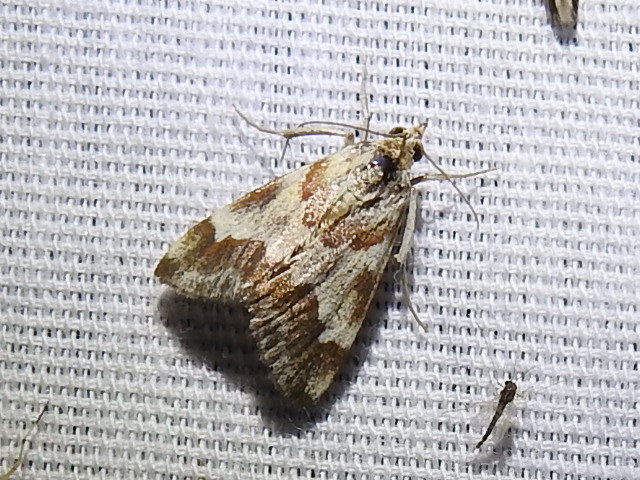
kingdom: Animalia
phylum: Arthropoda
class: Insecta
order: Lepidoptera
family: Crambidae
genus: Noctuelia
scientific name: Noctuelia Mimoschinia rufofascialis
